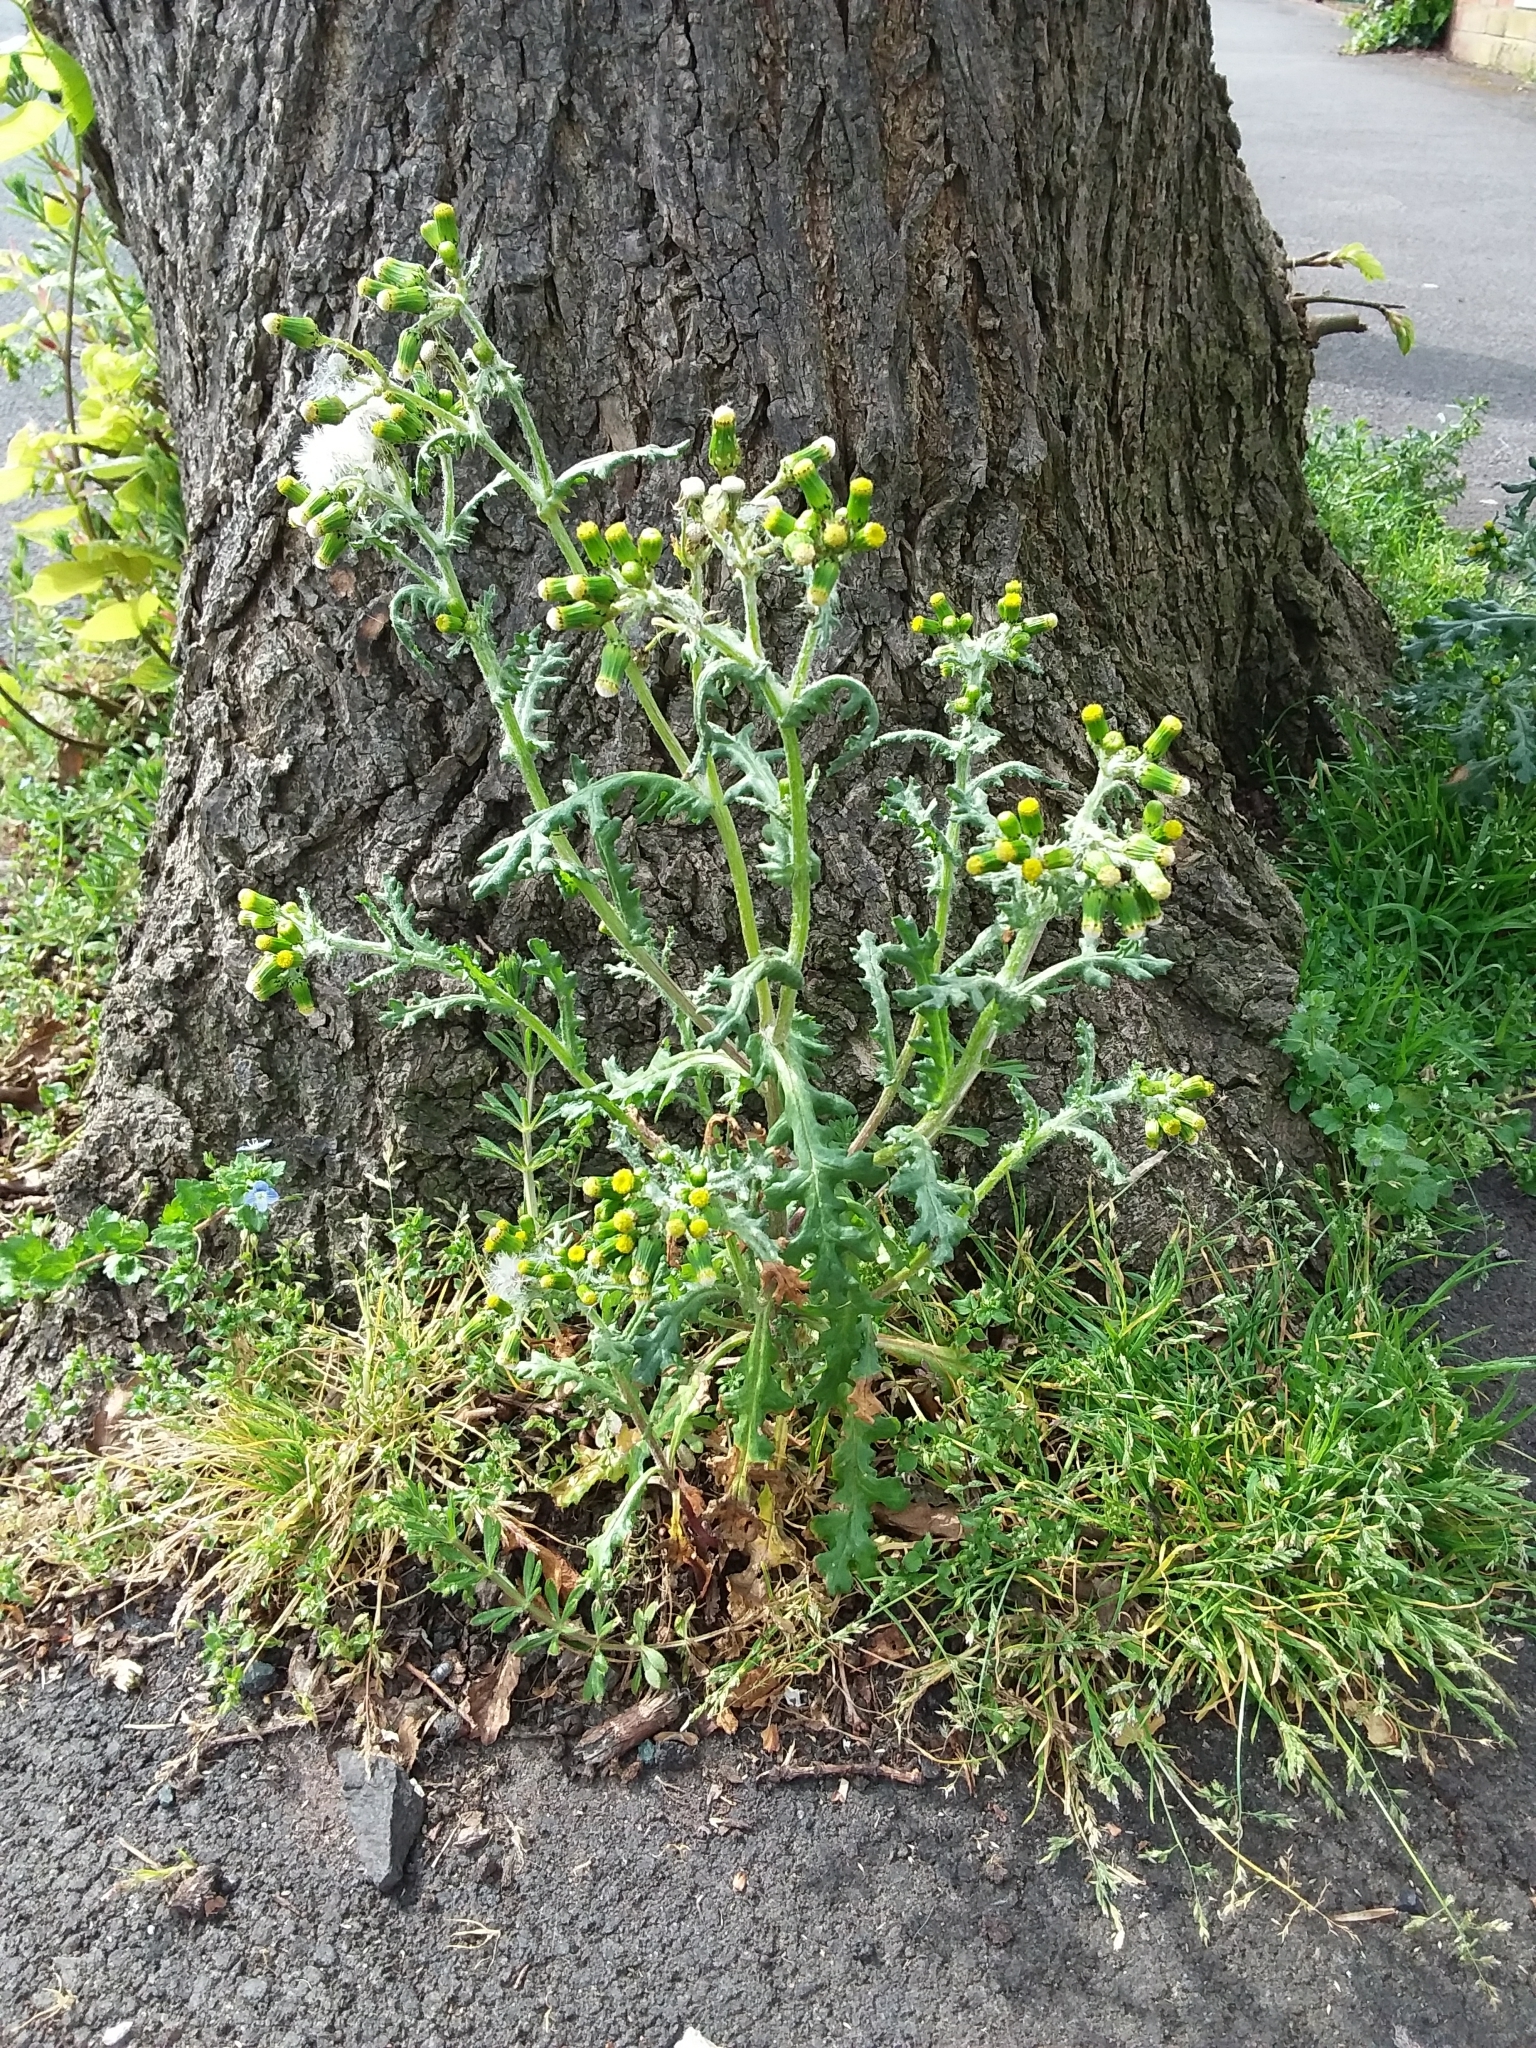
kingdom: Plantae
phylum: Tracheophyta
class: Magnoliopsida
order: Asterales
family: Asteraceae
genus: Senecio
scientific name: Senecio vulgaris
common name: Old-man-in-the-spring
